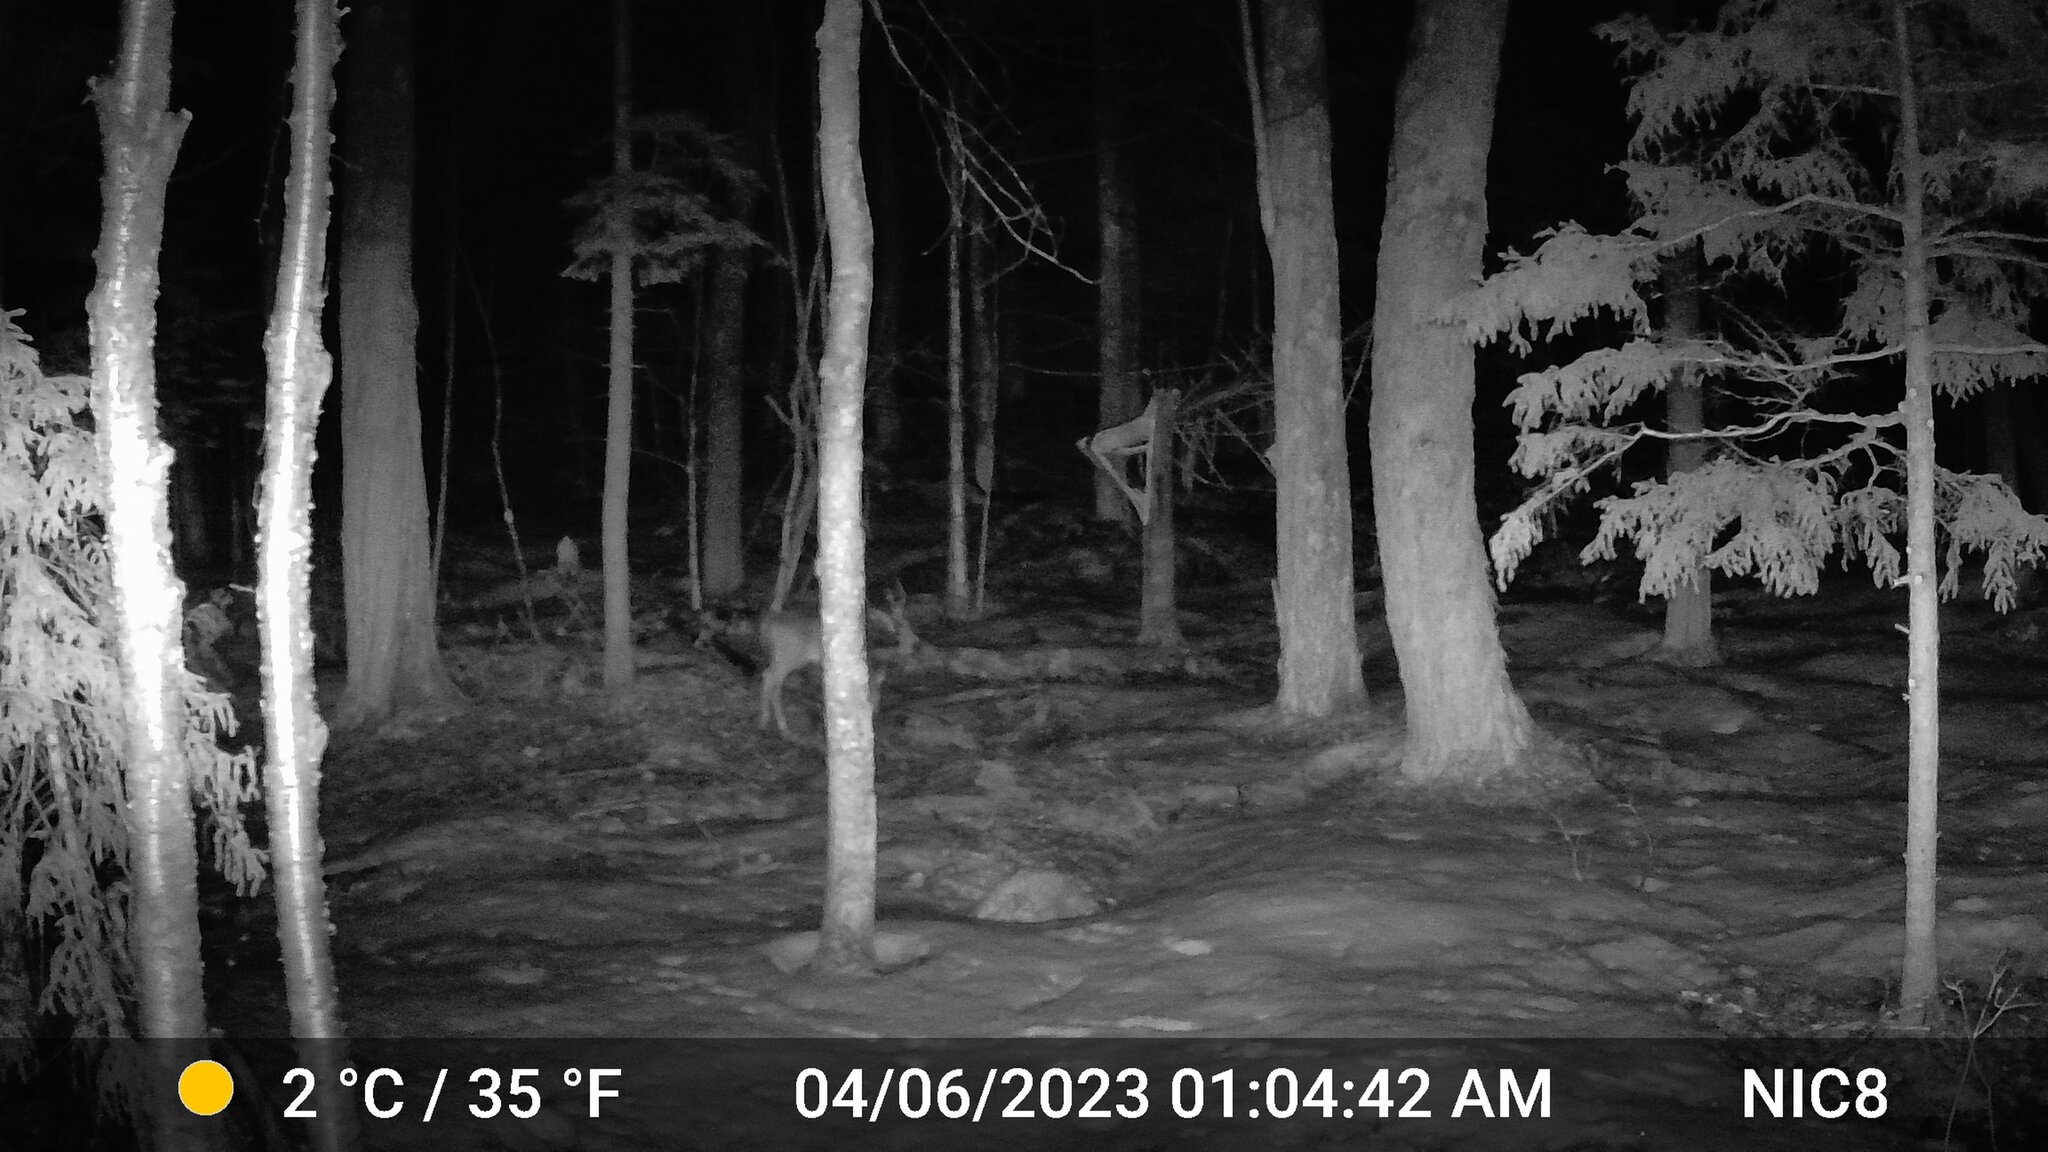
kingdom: Animalia
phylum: Chordata
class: Mammalia
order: Artiodactyla
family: Cervidae
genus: Odocoileus
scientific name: Odocoileus virginianus
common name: White-tailed deer
